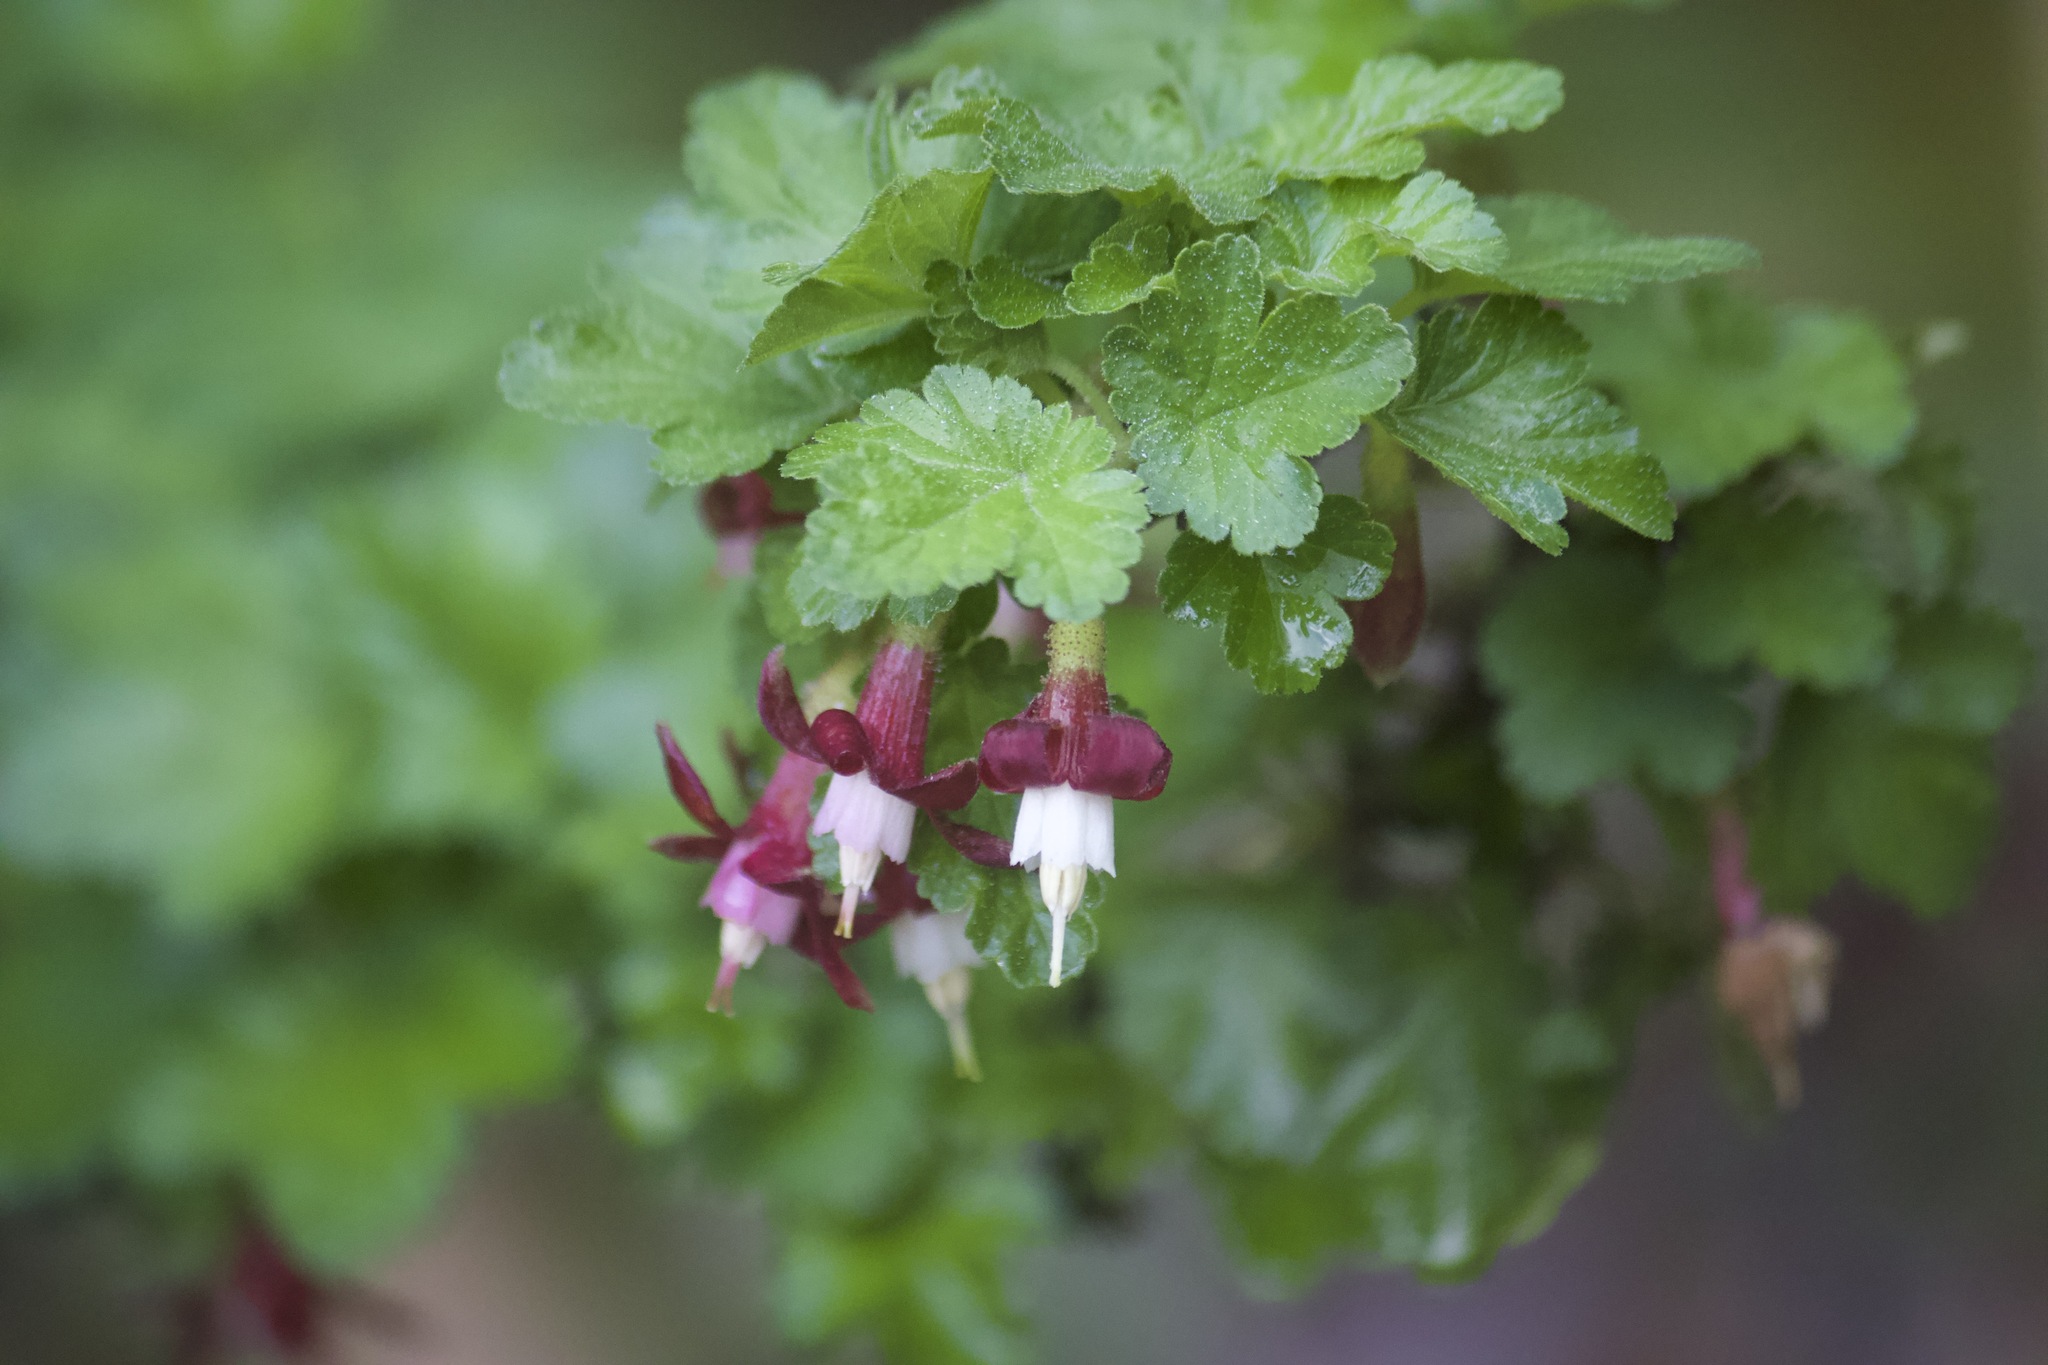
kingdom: Plantae
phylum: Tracheophyta
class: Magnoliopsida
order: Saxifragales
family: Grossulariaceae
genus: Ribes
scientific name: Ribes amarum
